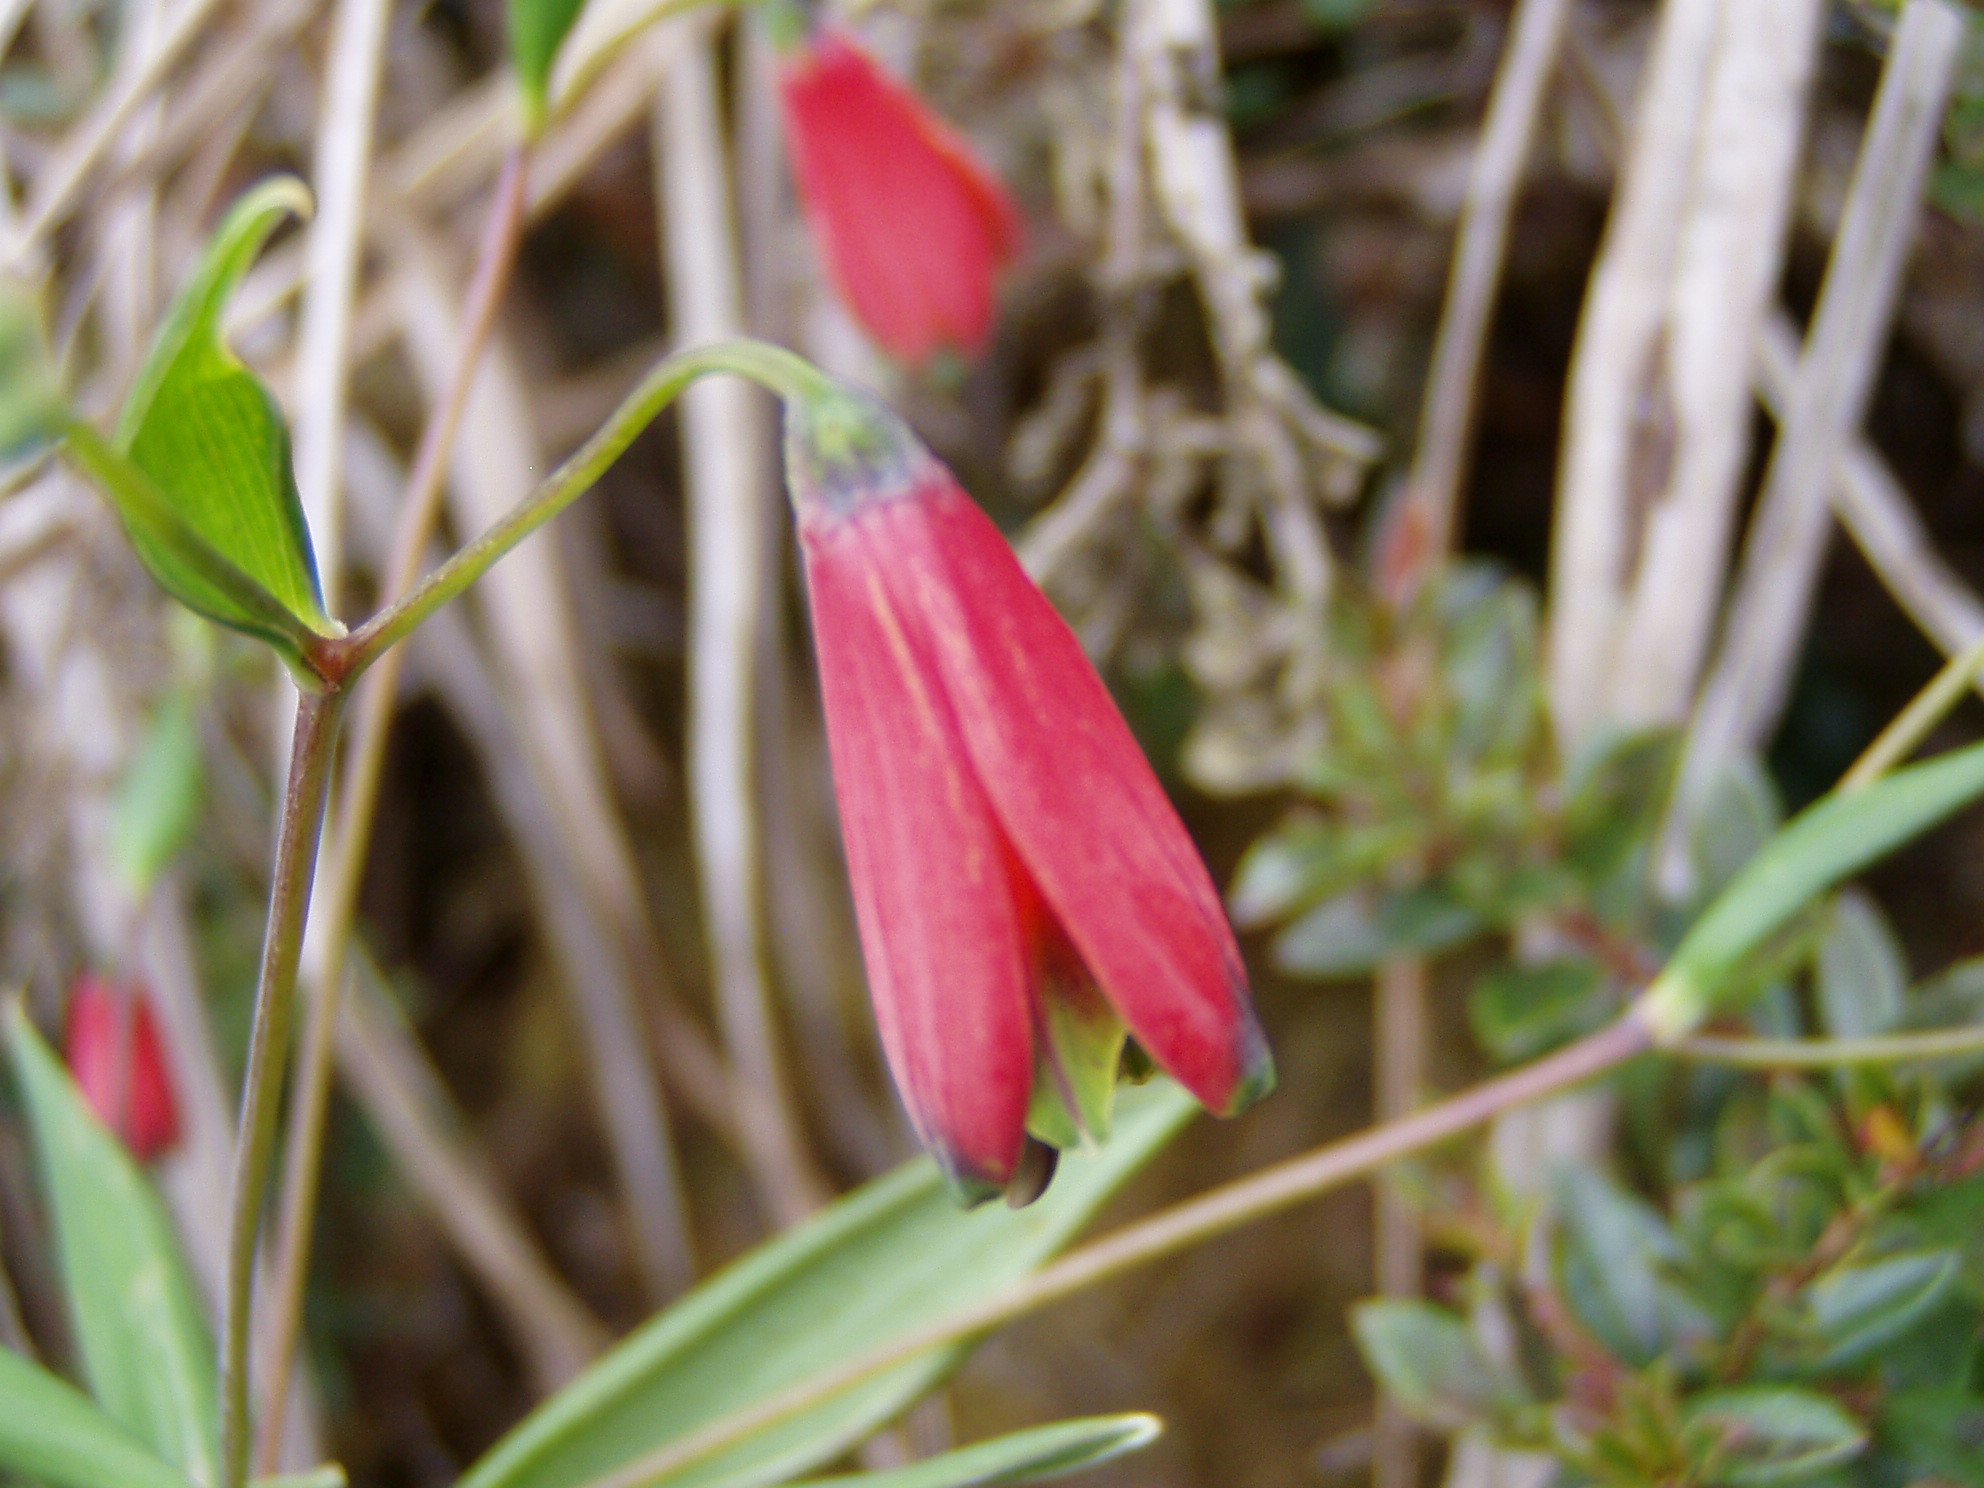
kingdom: Plantae
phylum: Tracheophyta
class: Liliopsida
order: Liliales
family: Alstroemeriaceae
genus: Bomarea
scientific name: Bomarea edulis
